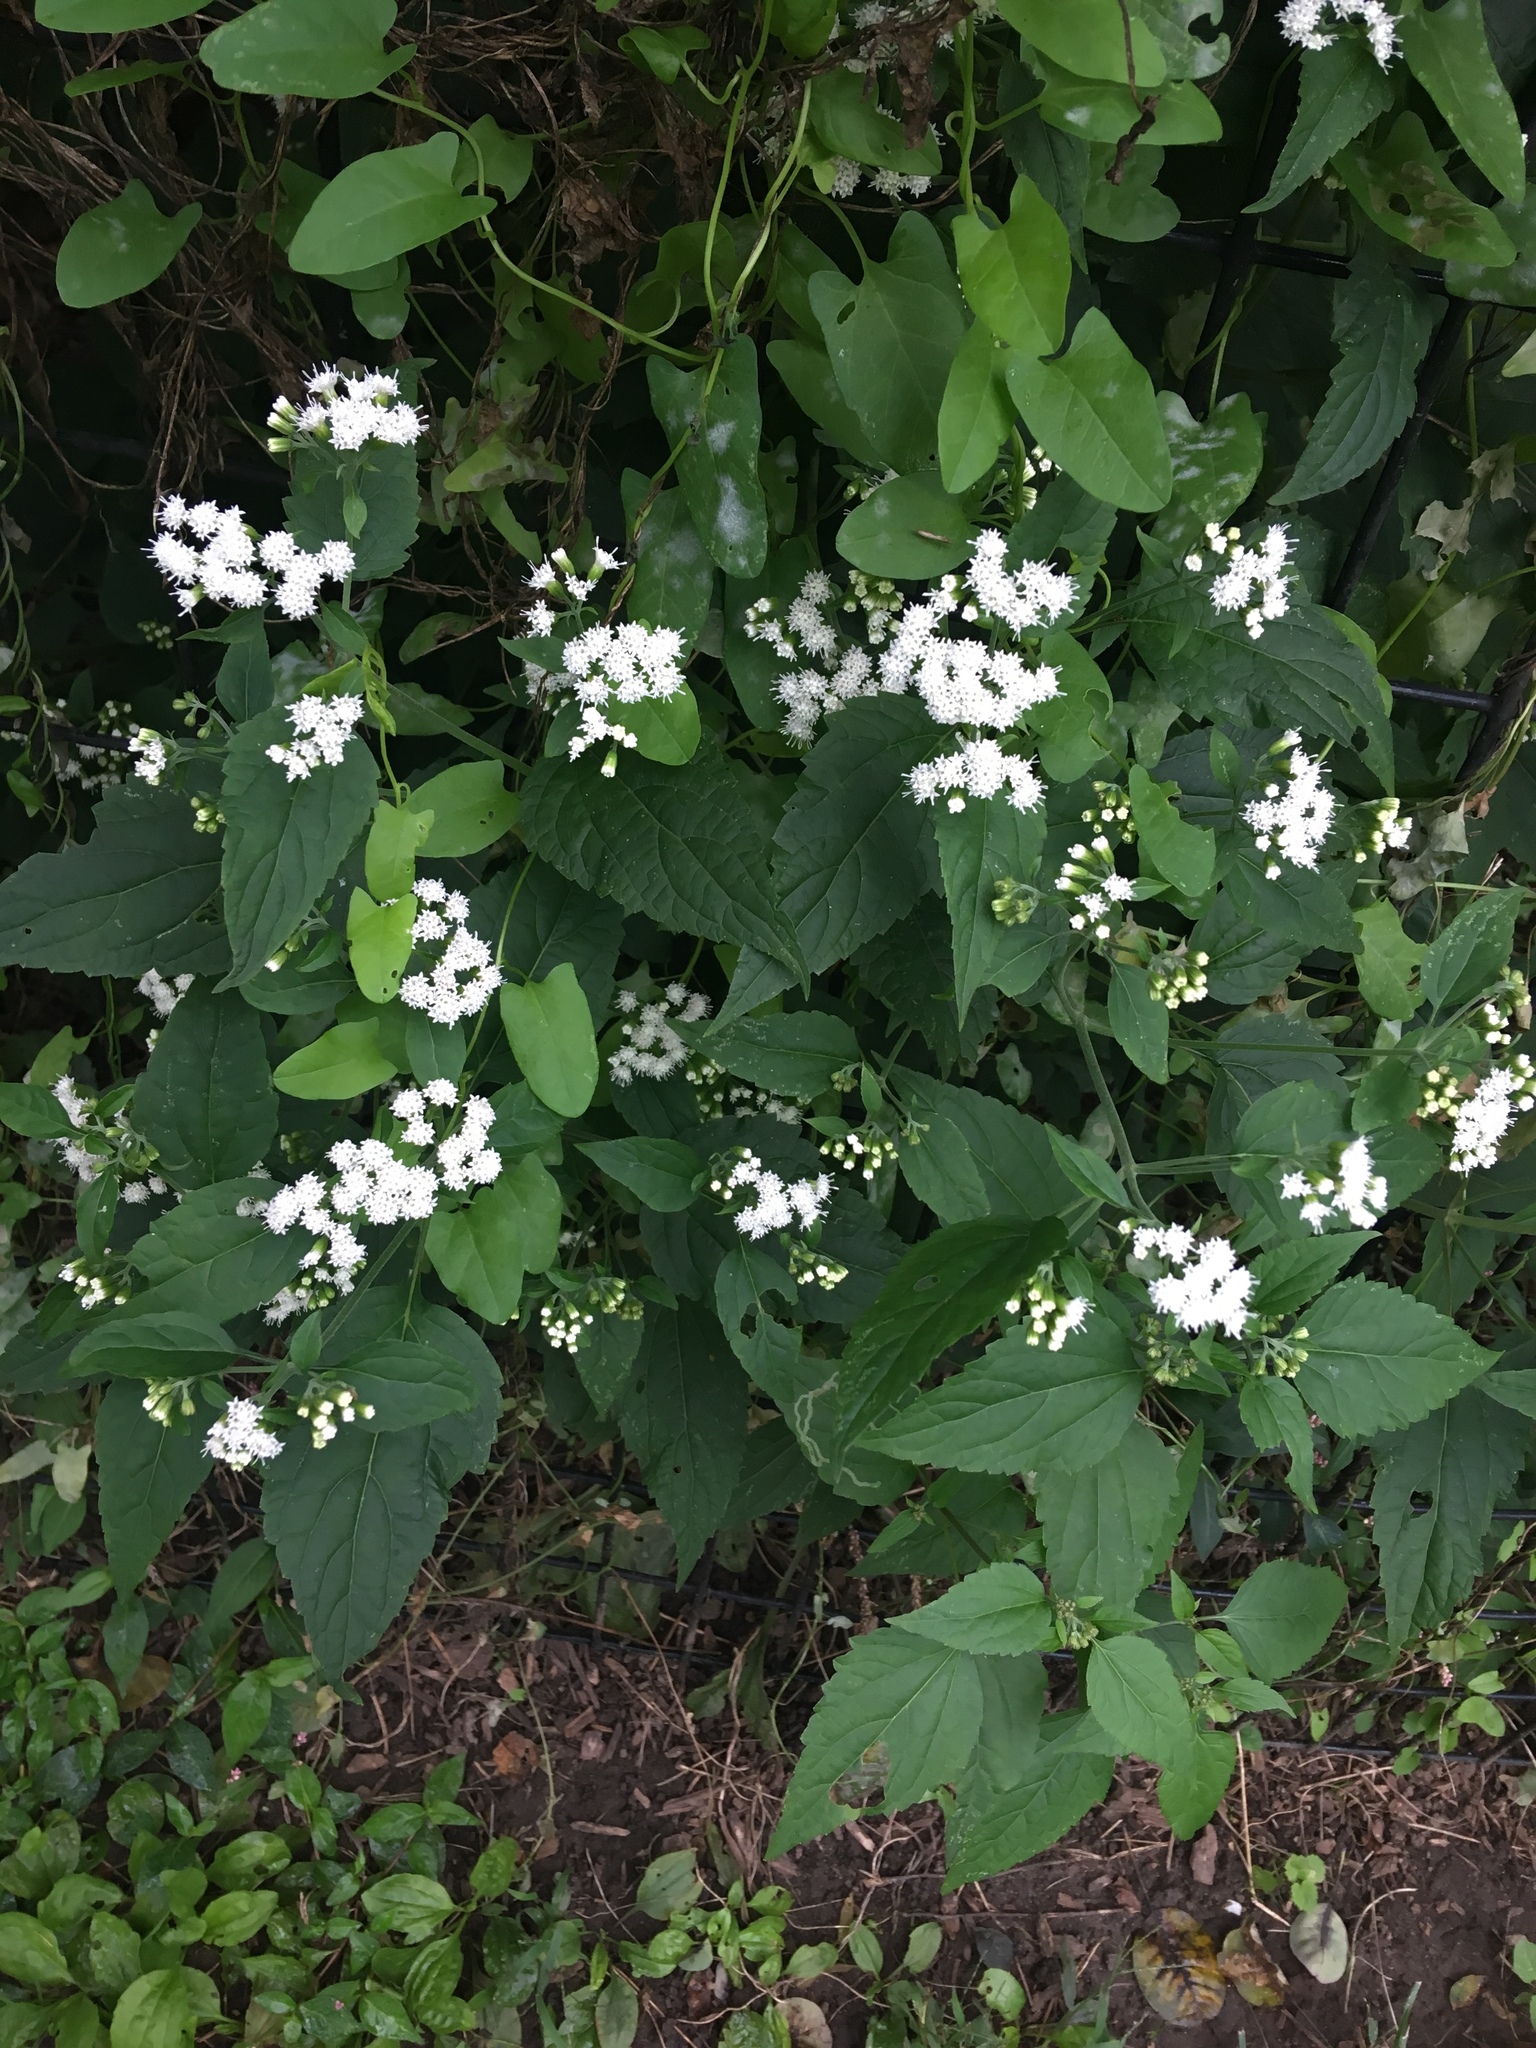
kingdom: Plantae
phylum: Tracheophyta
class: Magnoliopsida
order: Asterales
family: Asteraceae
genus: Ageratina
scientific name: Ageratina altissima
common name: White snakeroot
